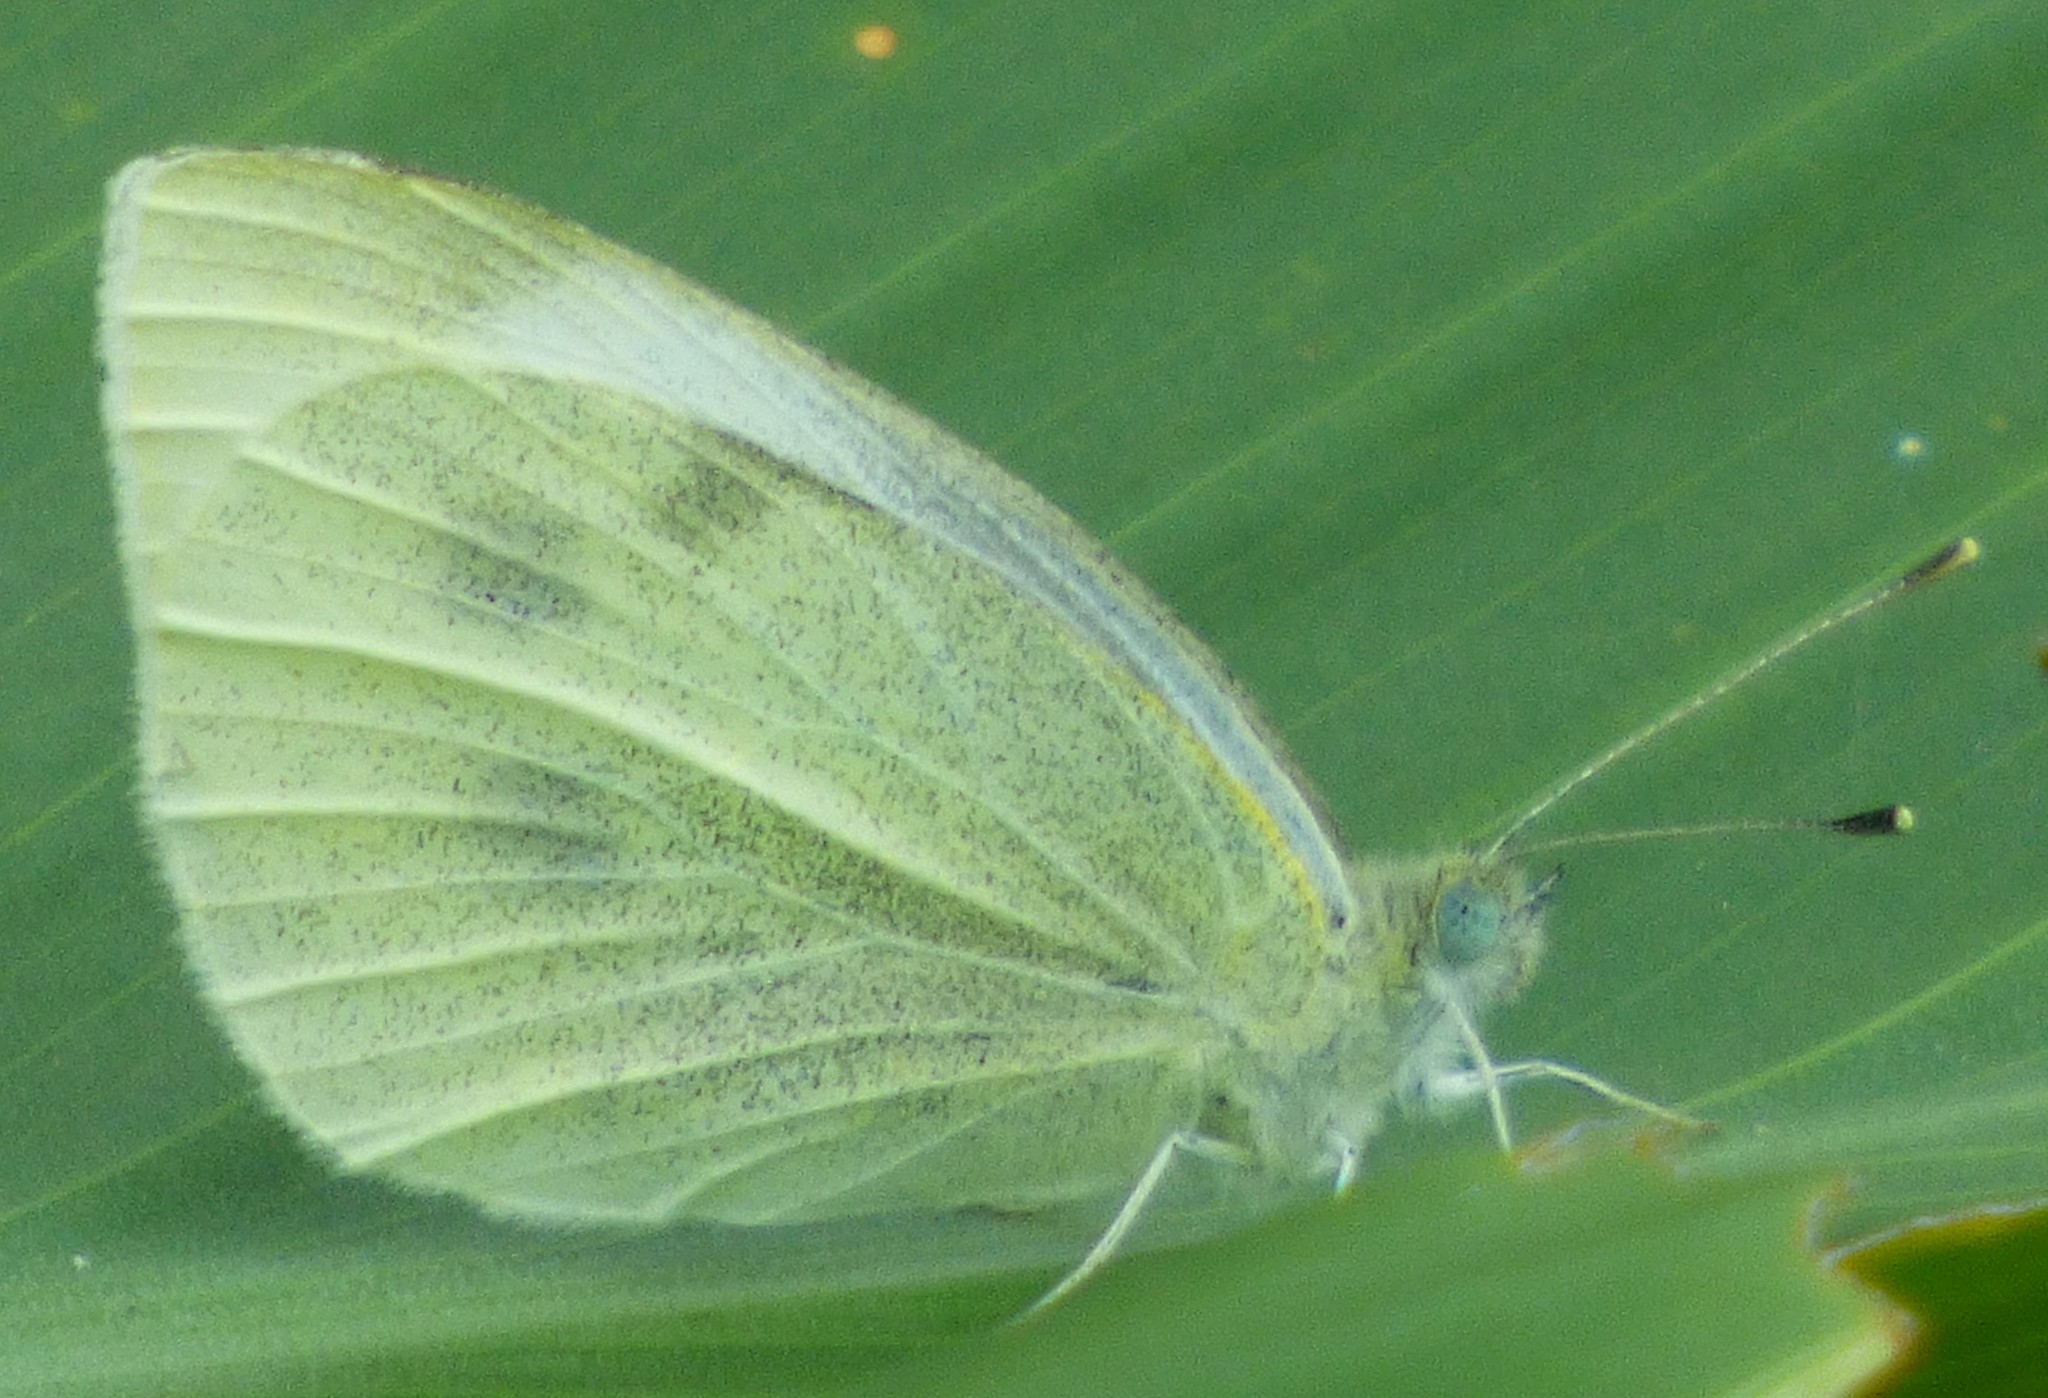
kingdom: Animalia
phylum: Arthropoda
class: Insecta
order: Lepidoptera
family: Pieridae
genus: Pieris
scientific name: Pieris rapae
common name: Small white
